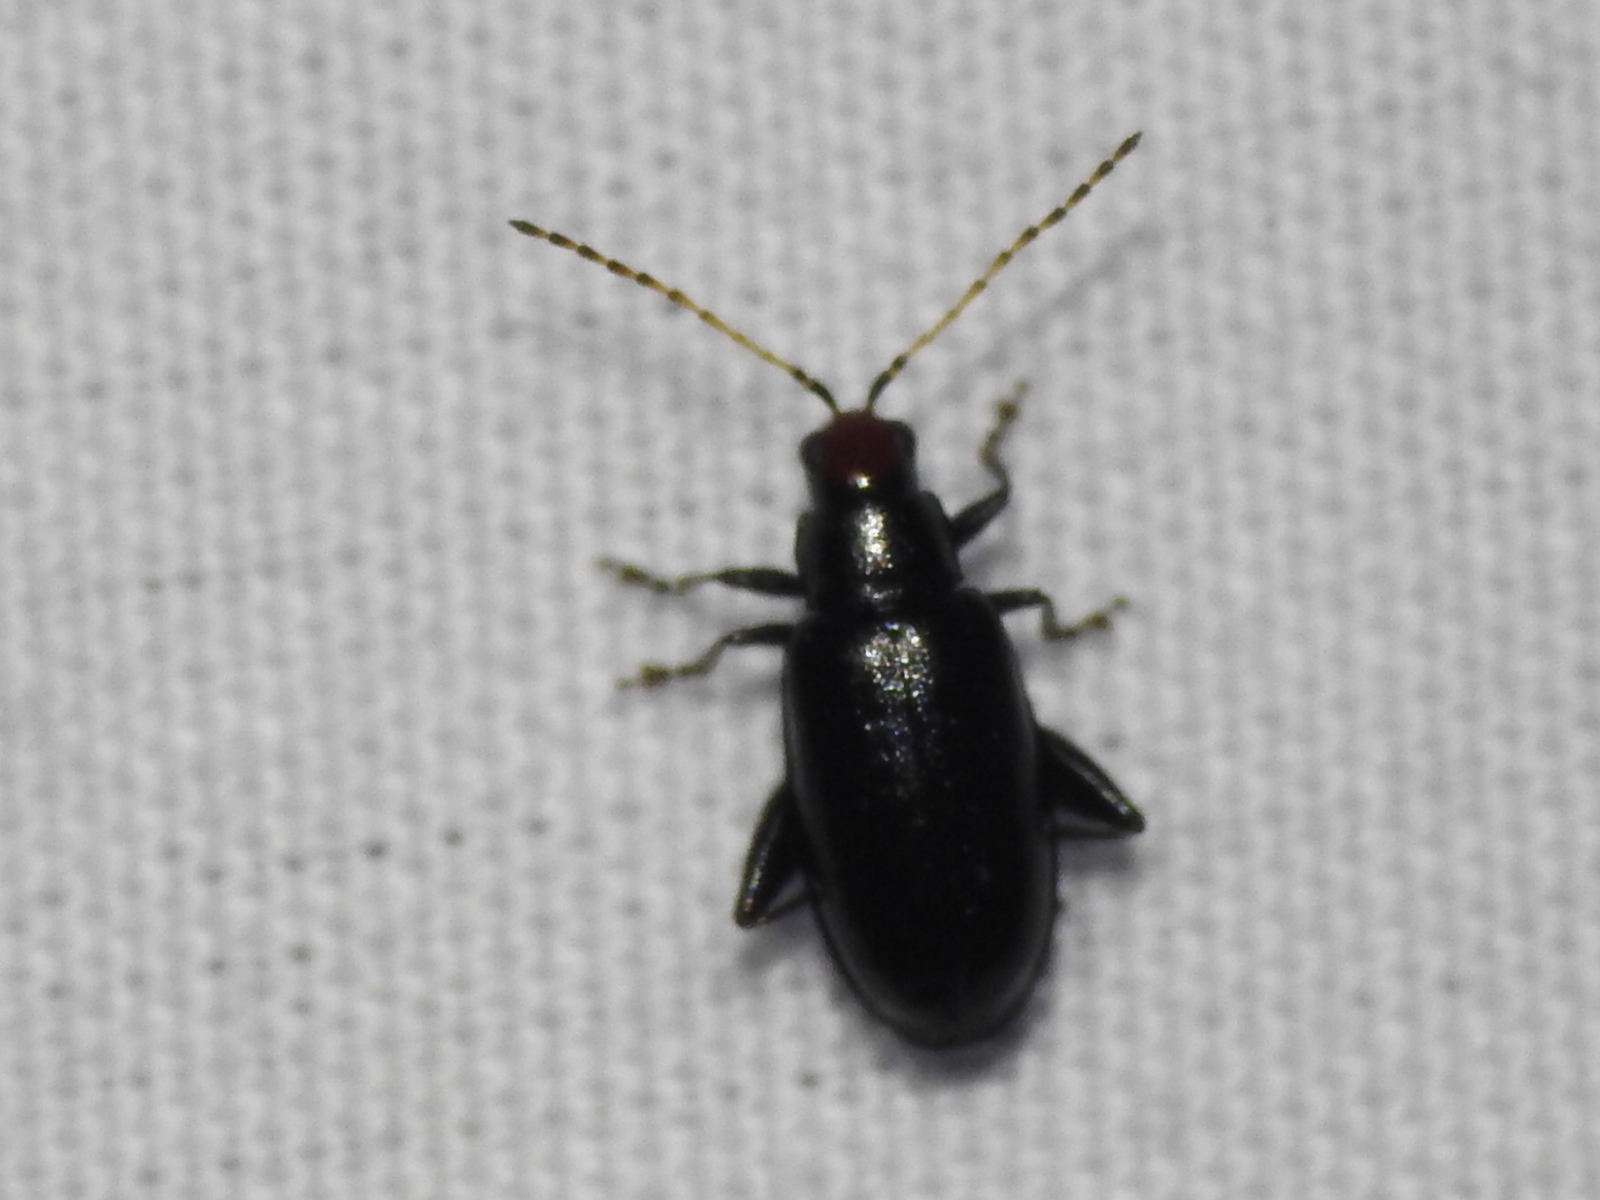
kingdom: Animalia
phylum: Arthropoda
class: Insecta
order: Coleoptera
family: Chrysomelidae
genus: Systena
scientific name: Systena frontalis
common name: Red-headed flea beetle
